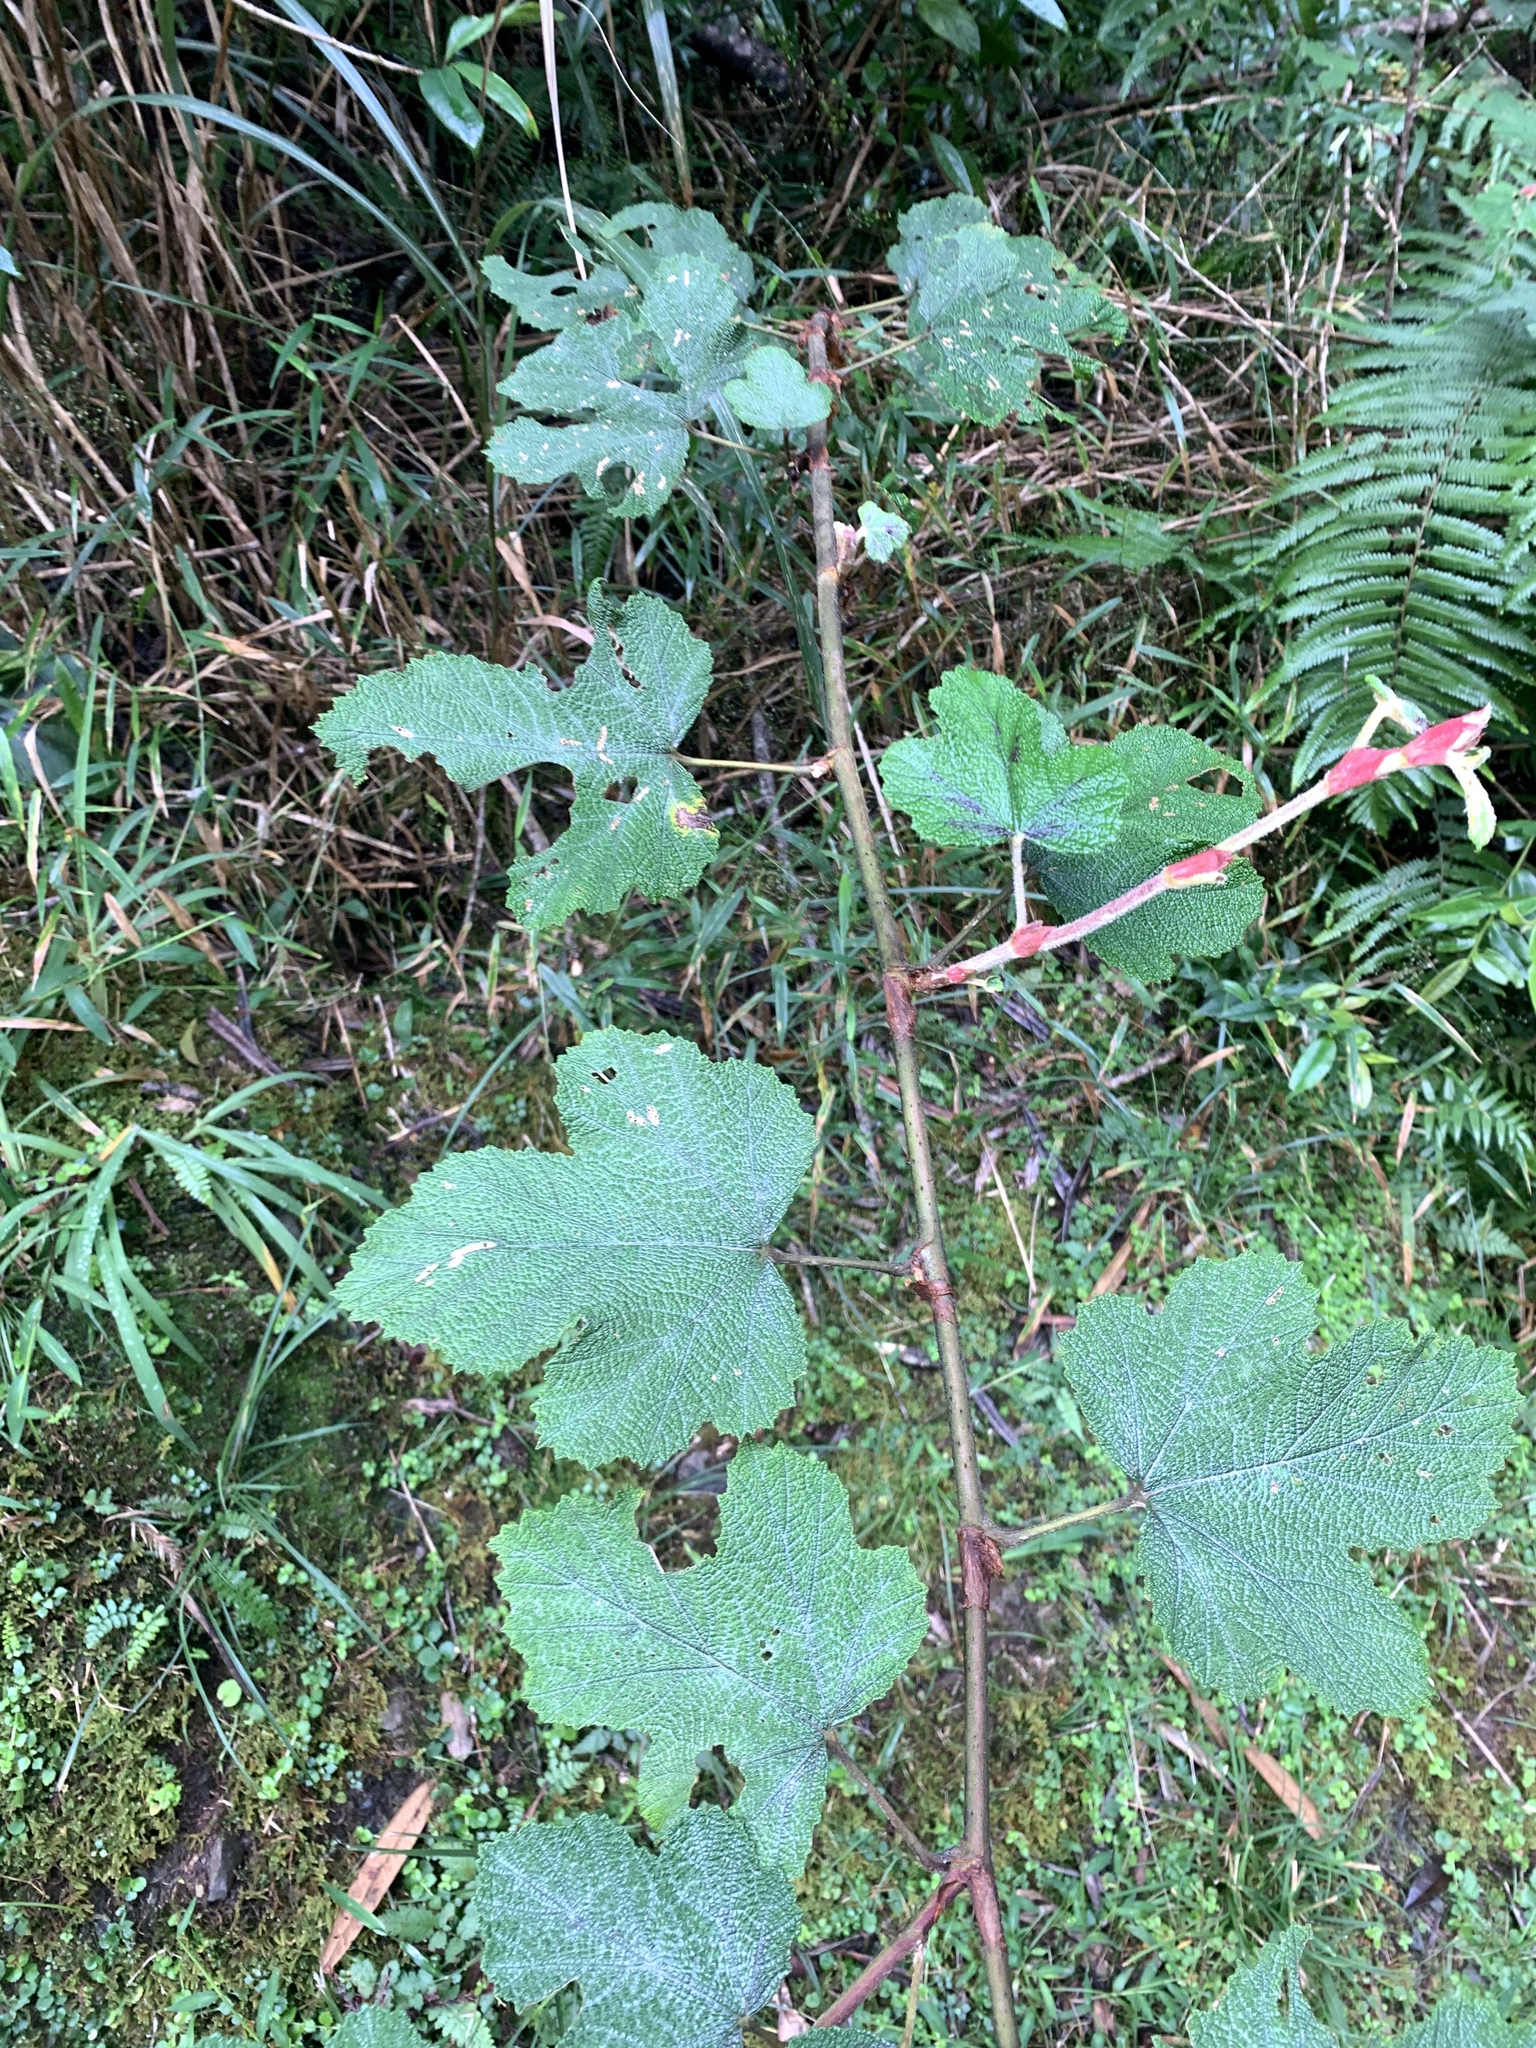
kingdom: Plantae
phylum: Tracheophyta
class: Magnoliopsida
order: Rosales
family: Rosaceae
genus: Rubus
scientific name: Rubus formosensis
